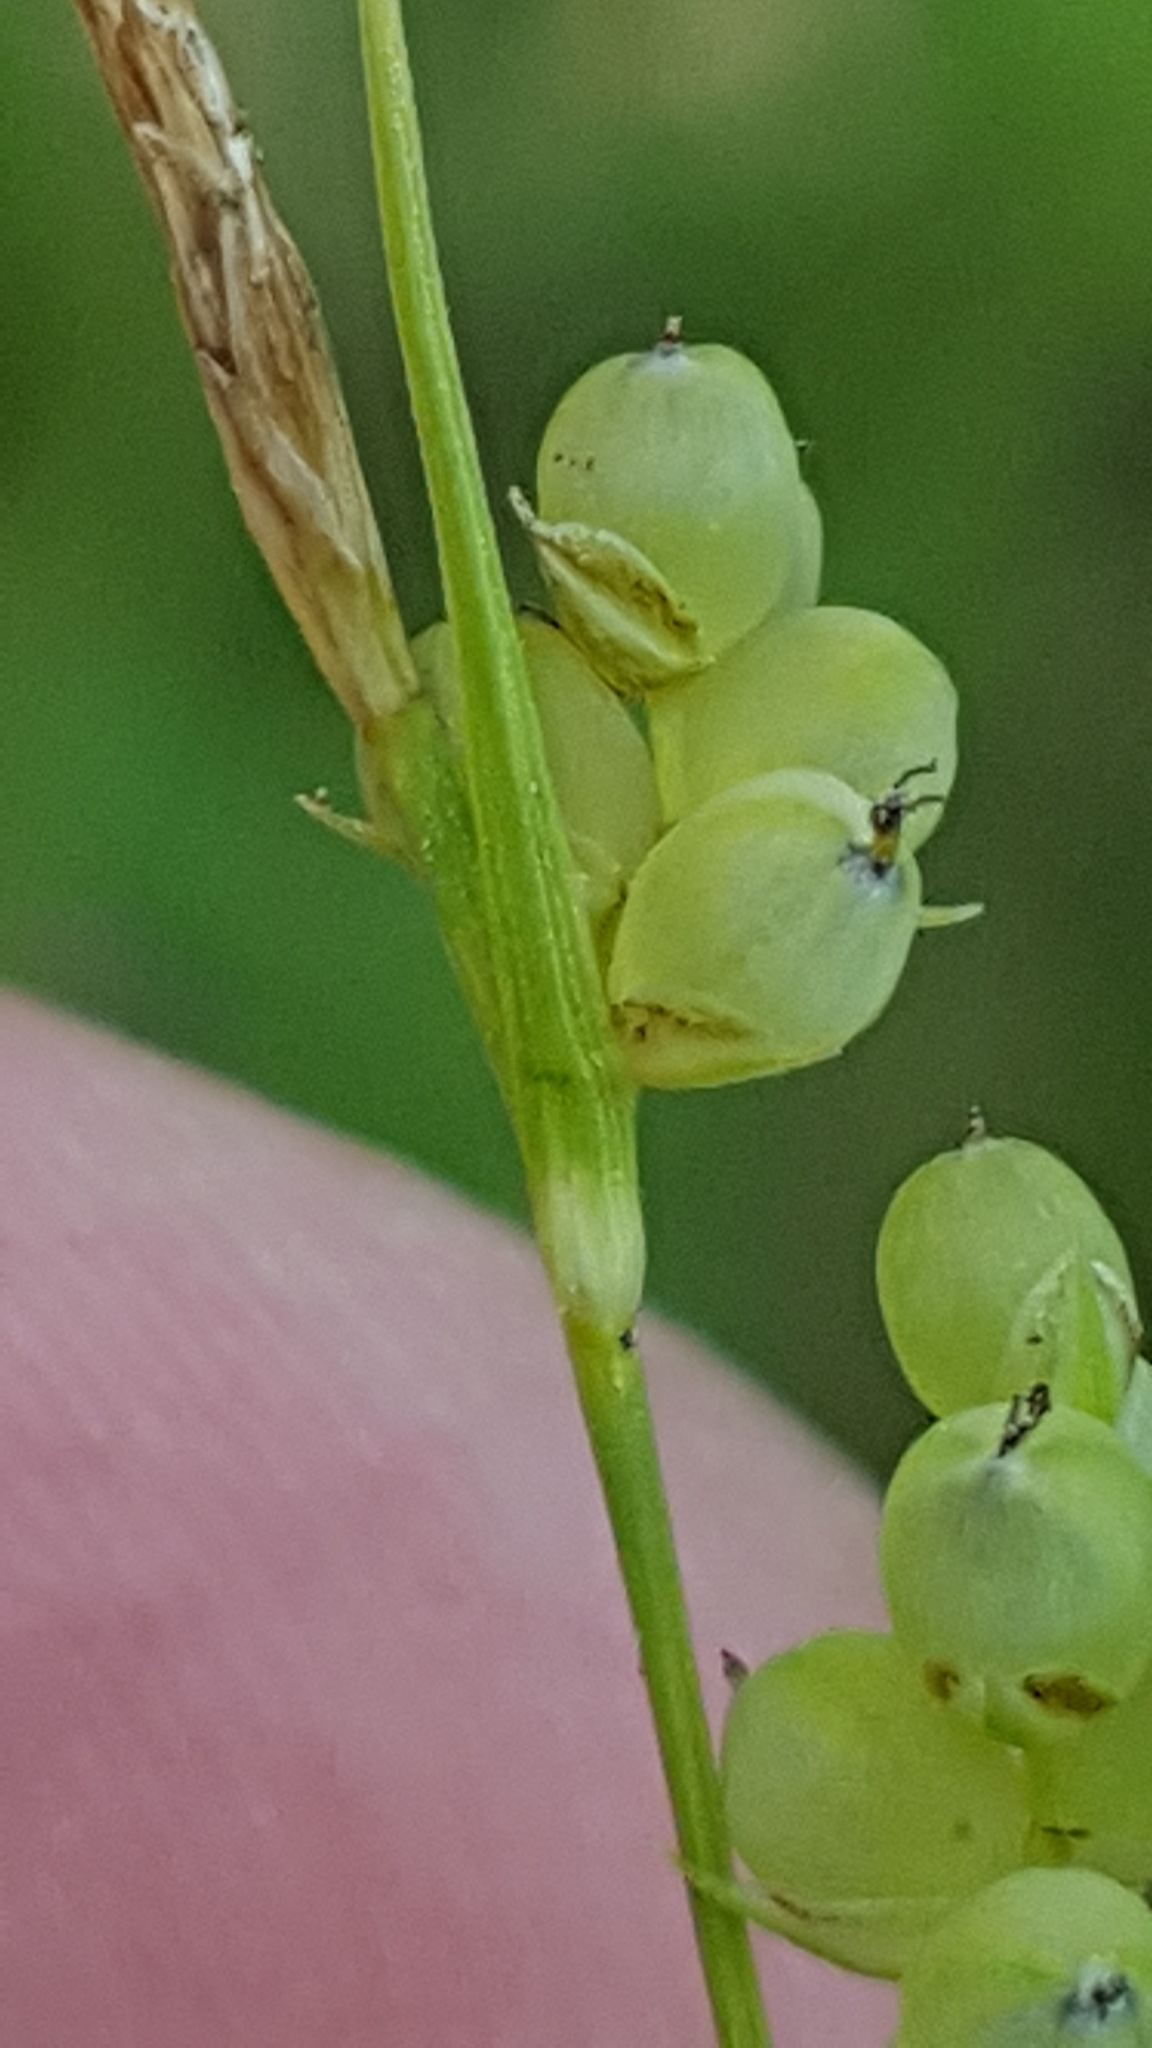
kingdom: Plantae
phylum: Tracheophyta
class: Liliopsida
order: Poales
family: Cyperaceae
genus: Carex
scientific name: Carex aurea
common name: Golden sedge
